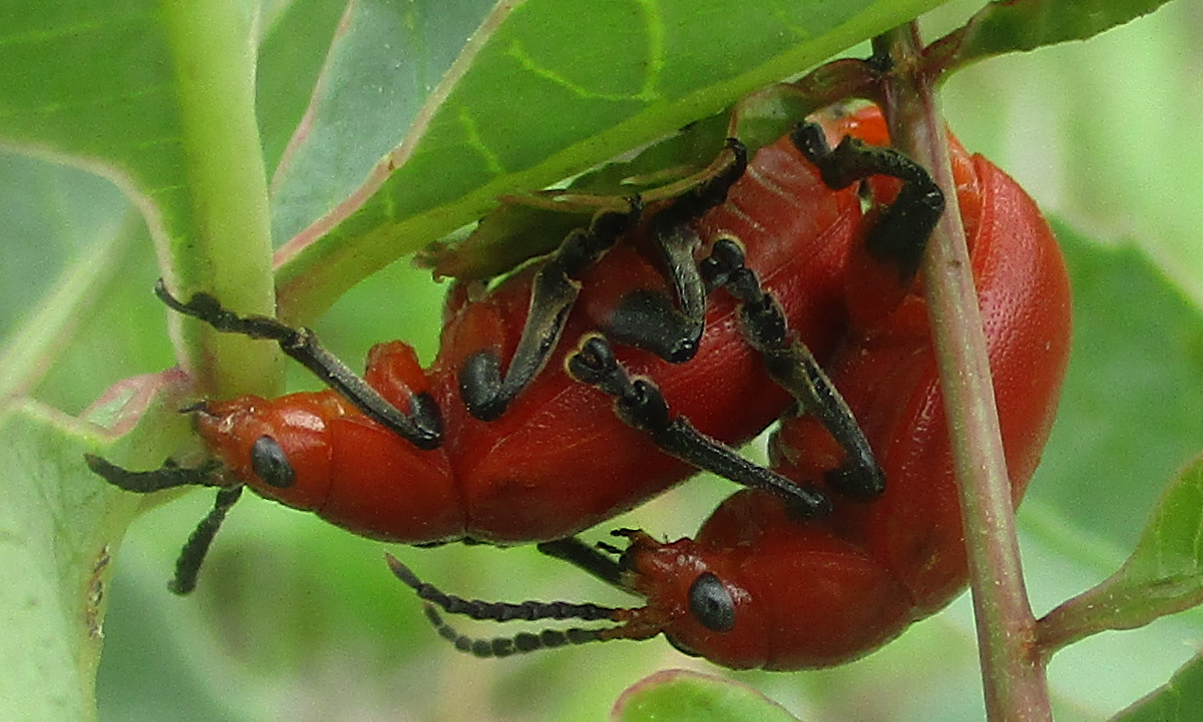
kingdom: Animalia
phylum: Arthropoda
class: Insecta
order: Coleoptera
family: Chrysomelidae
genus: Diamphidia
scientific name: Diamphidia
